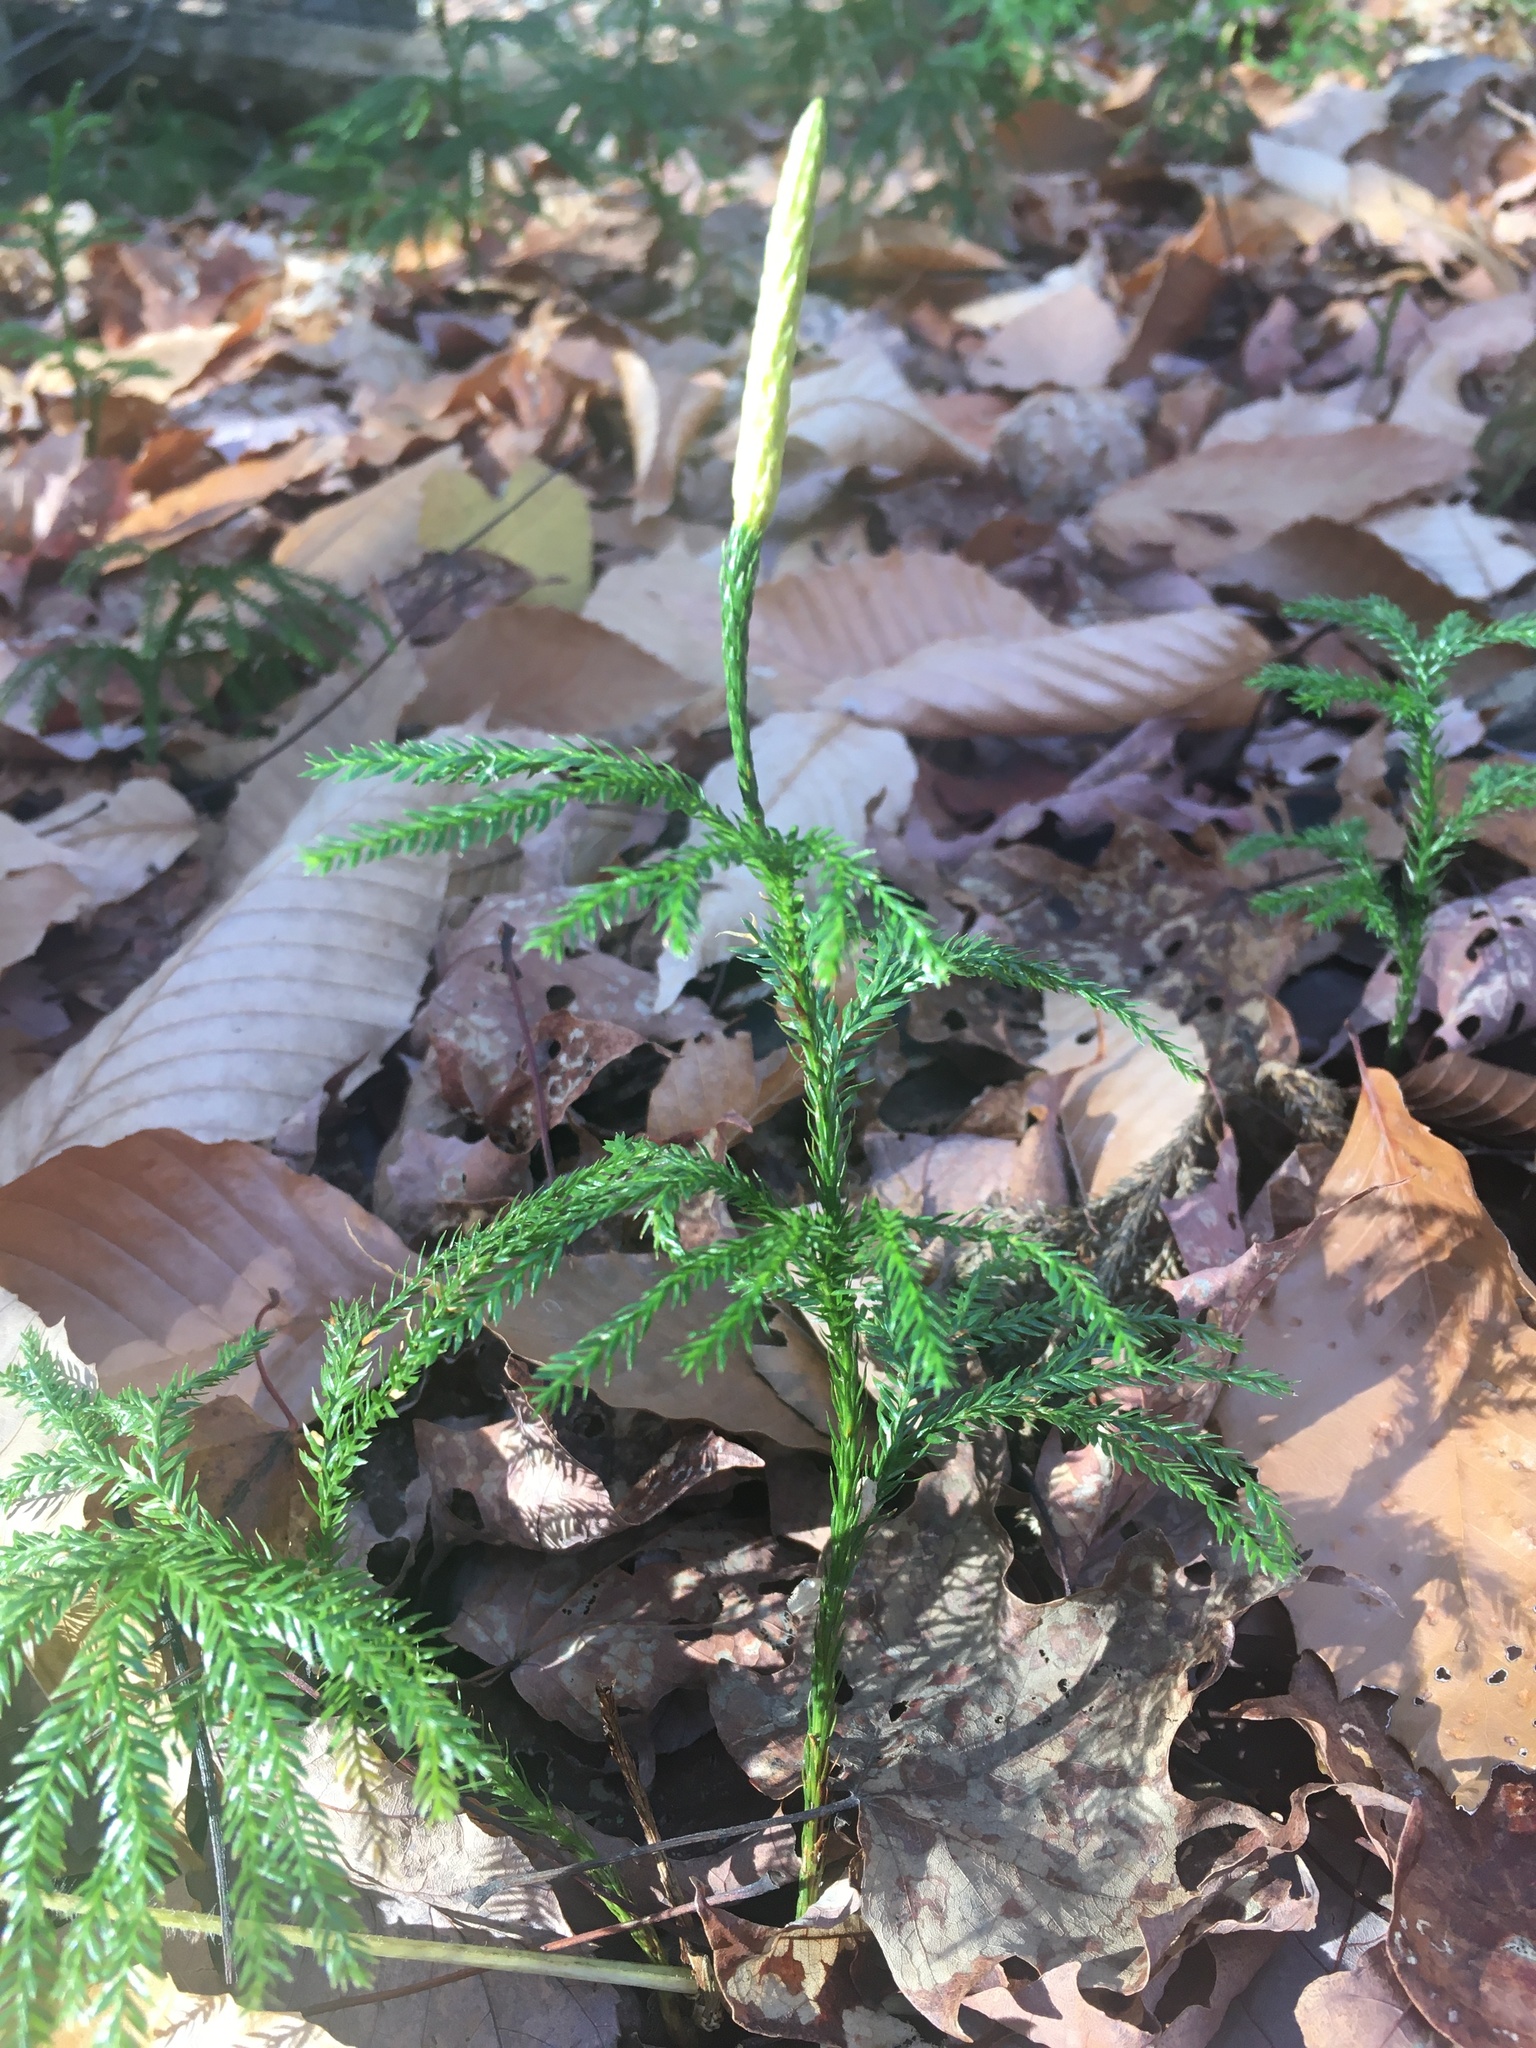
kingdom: Plantae
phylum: Tracheophyta
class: Lycopodiopsida
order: Lycopodiales
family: Lycopodiaceae
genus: Dendrolycopodium
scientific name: Dendrolycopodium dendroideum
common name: Northern tree-clubmoss
